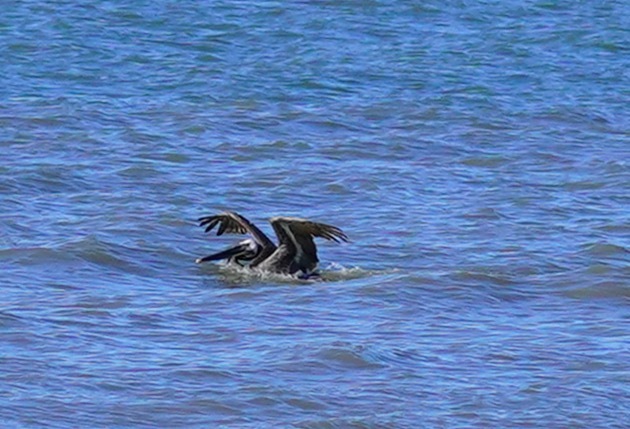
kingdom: Animalia
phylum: Chordata
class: Aves
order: Pelecaniformes
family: Pelecanidae
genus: Pelecanus
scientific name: Pelecanus occidentalis
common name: Brown pelican
